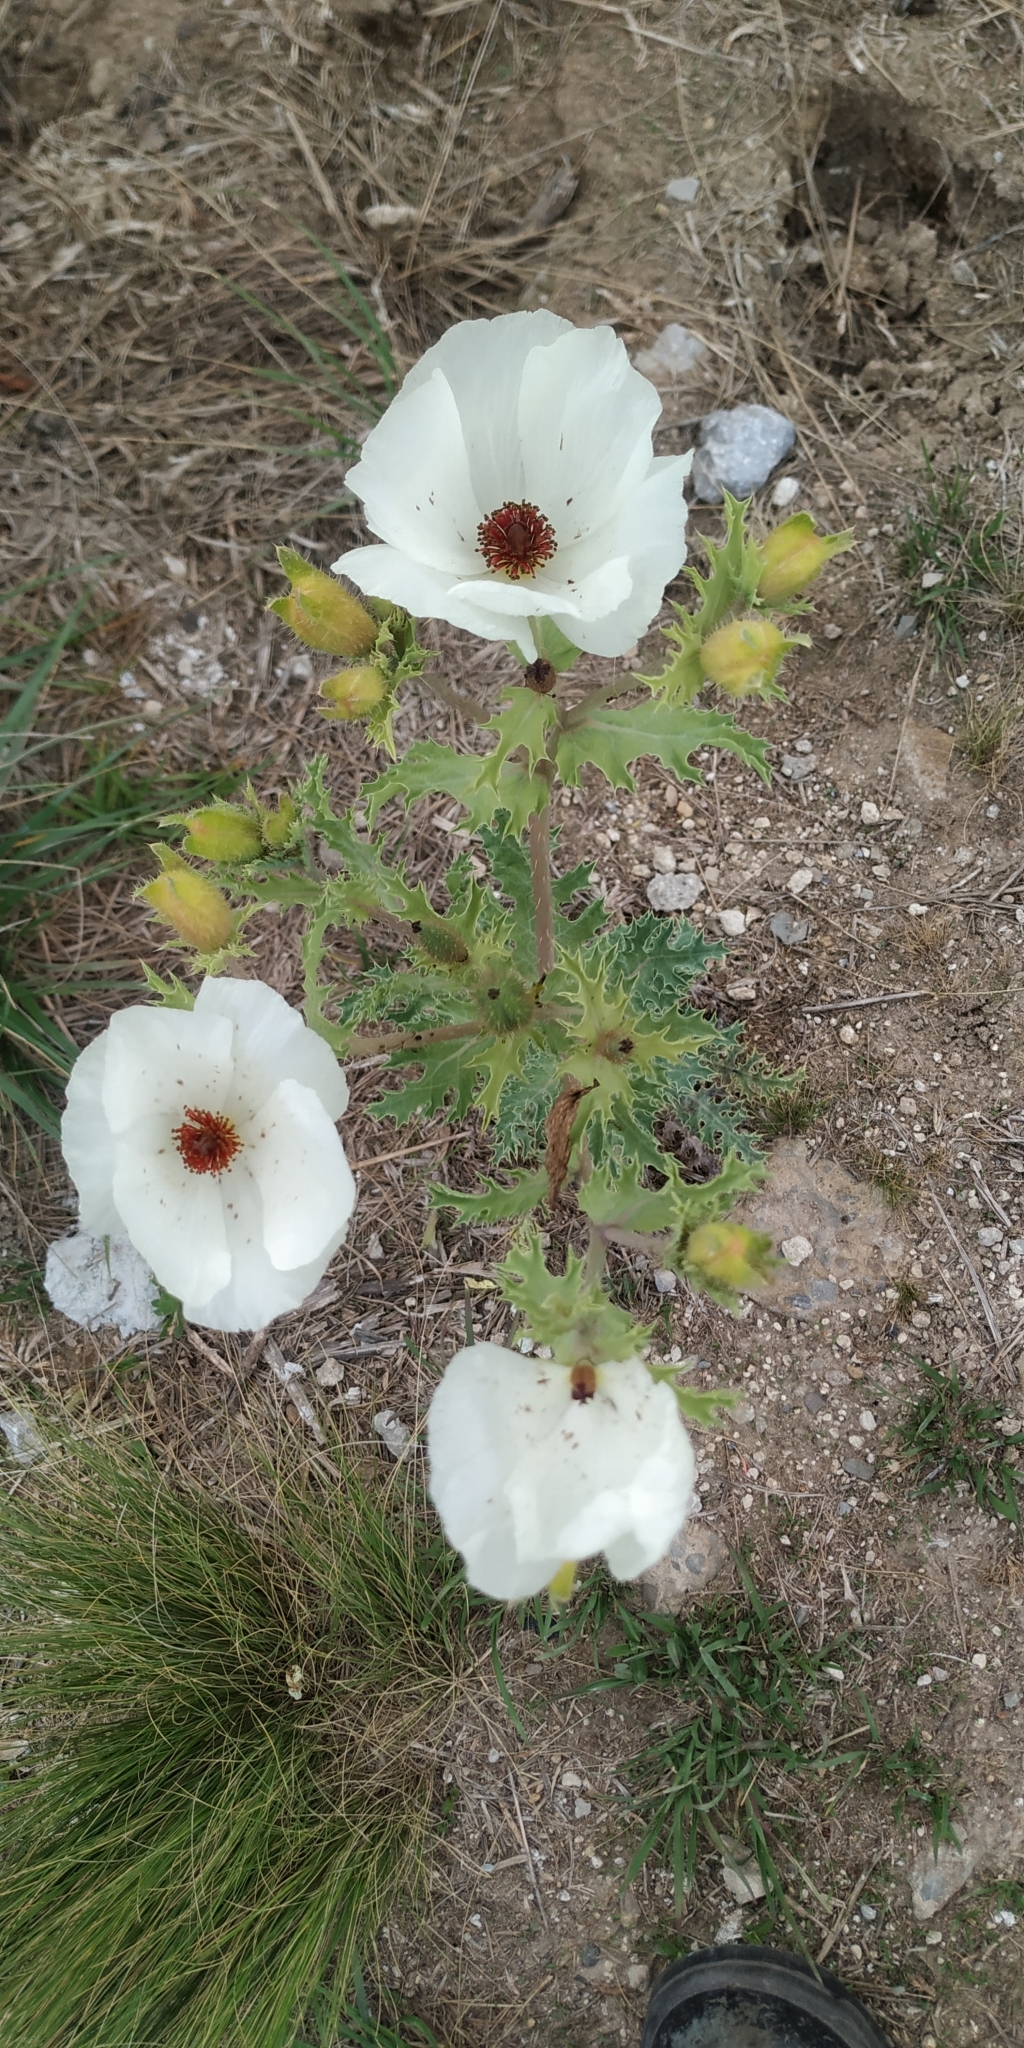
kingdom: Plantae
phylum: Tracheophyta
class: Magnoliopsida
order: Ranunculales
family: Papaveraceae
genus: Argemone
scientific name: Argemone platyceras
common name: Crested-poppy
